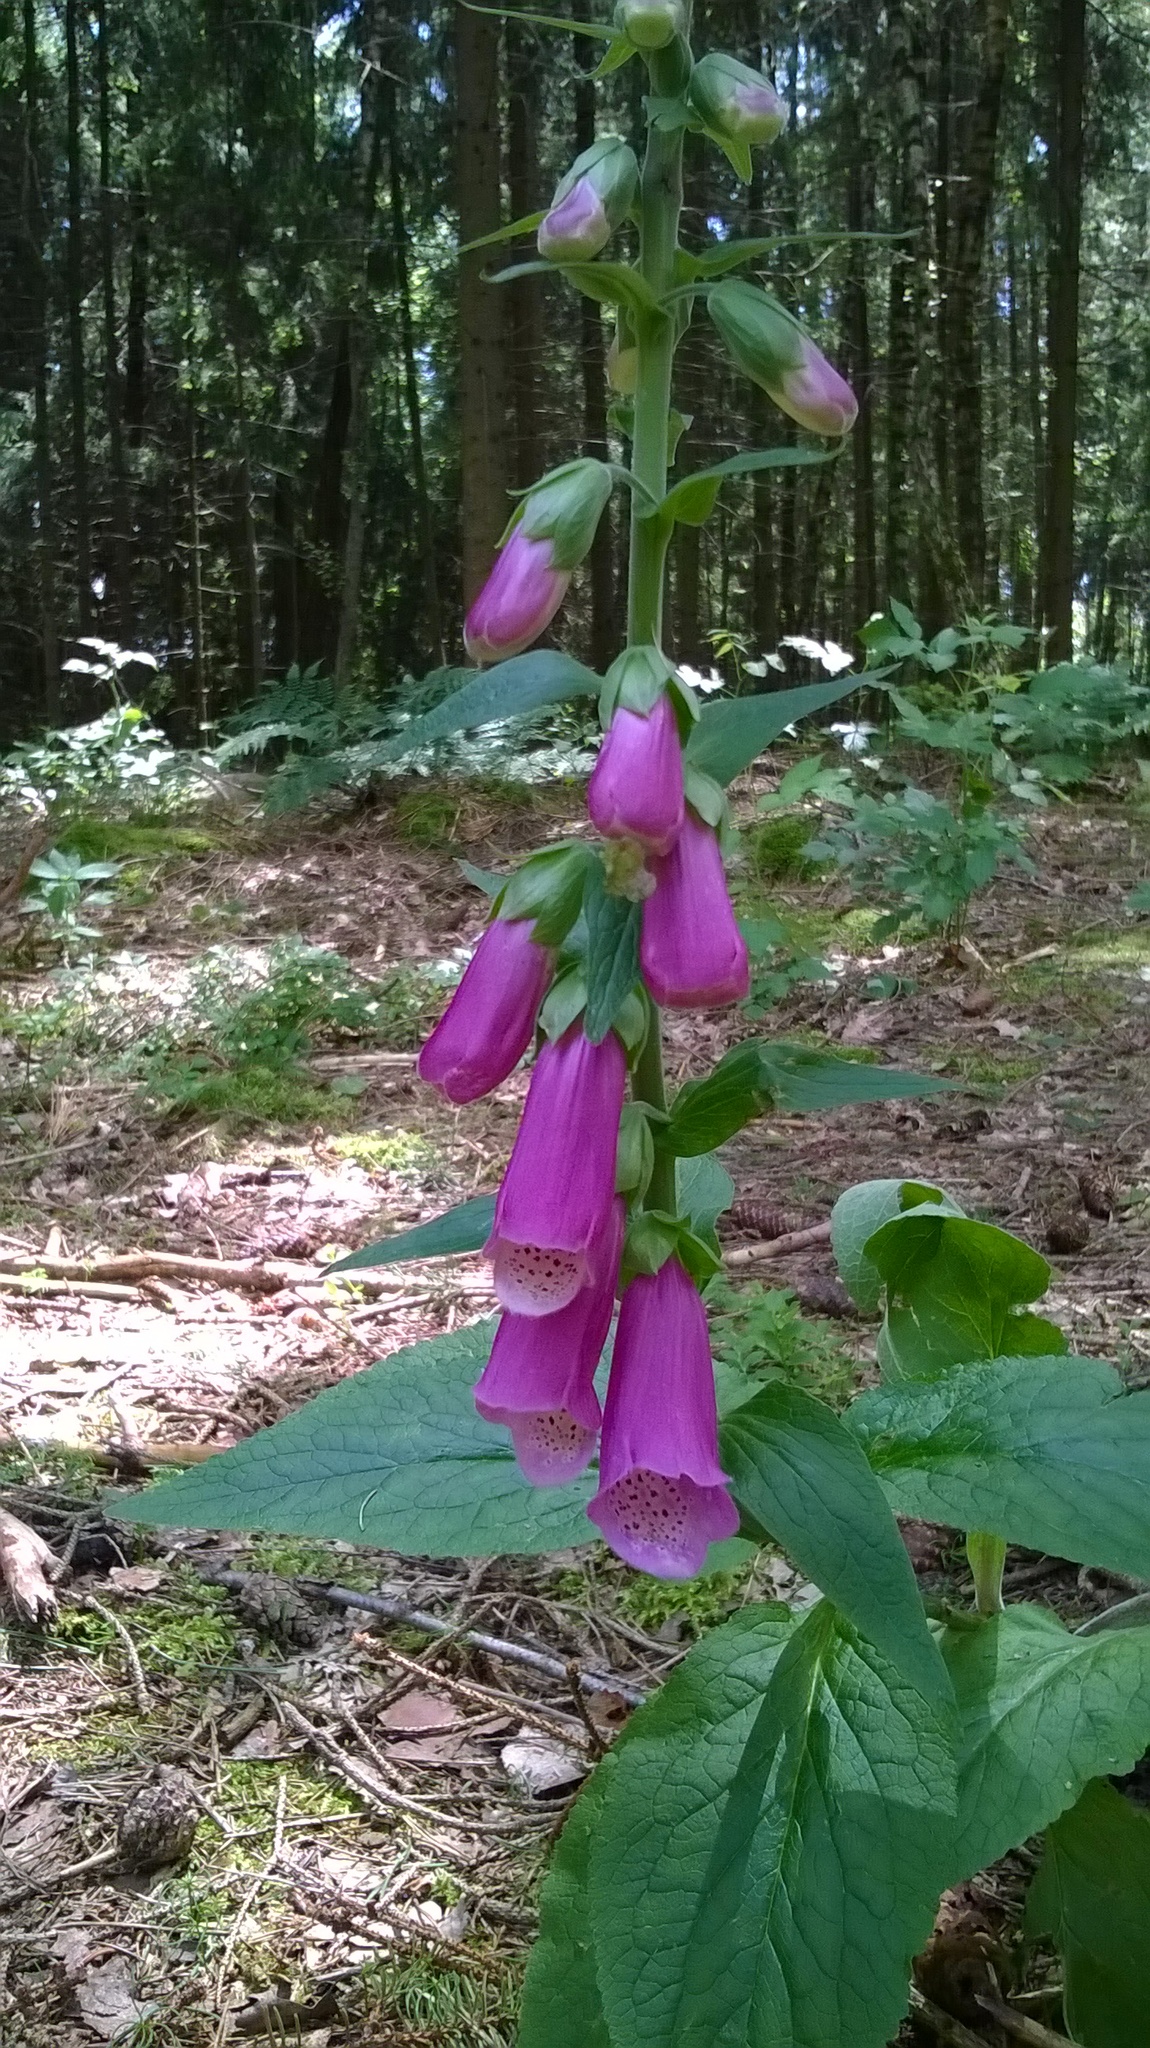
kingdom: Plantae
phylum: Tracheophyta
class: Magnoliopsida
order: Lamiales
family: Plantaginaceae
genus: Digitalis
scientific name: Digitalis purpurea
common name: Foxglove
